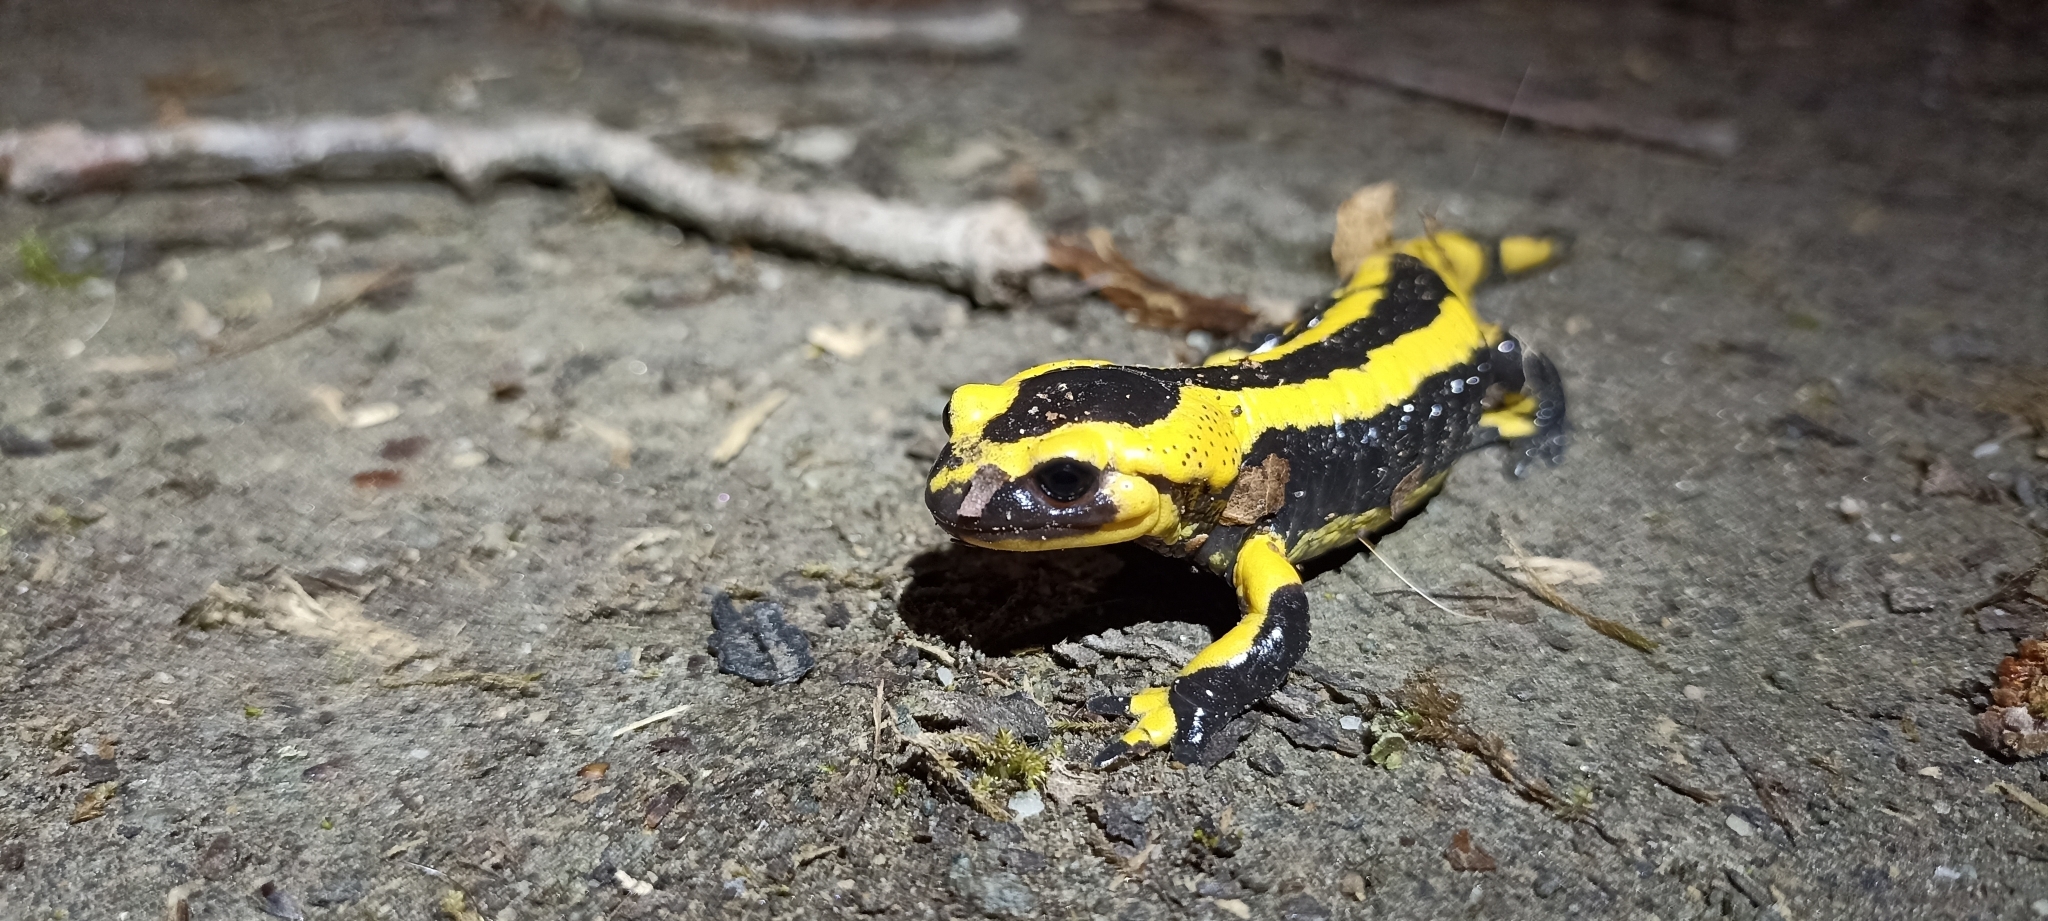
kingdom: Animalia
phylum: Chordata
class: Amphibia
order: Caudata
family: Salamandridae
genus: Salamandra
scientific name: Salamandra salamandra
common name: Fire salamander
